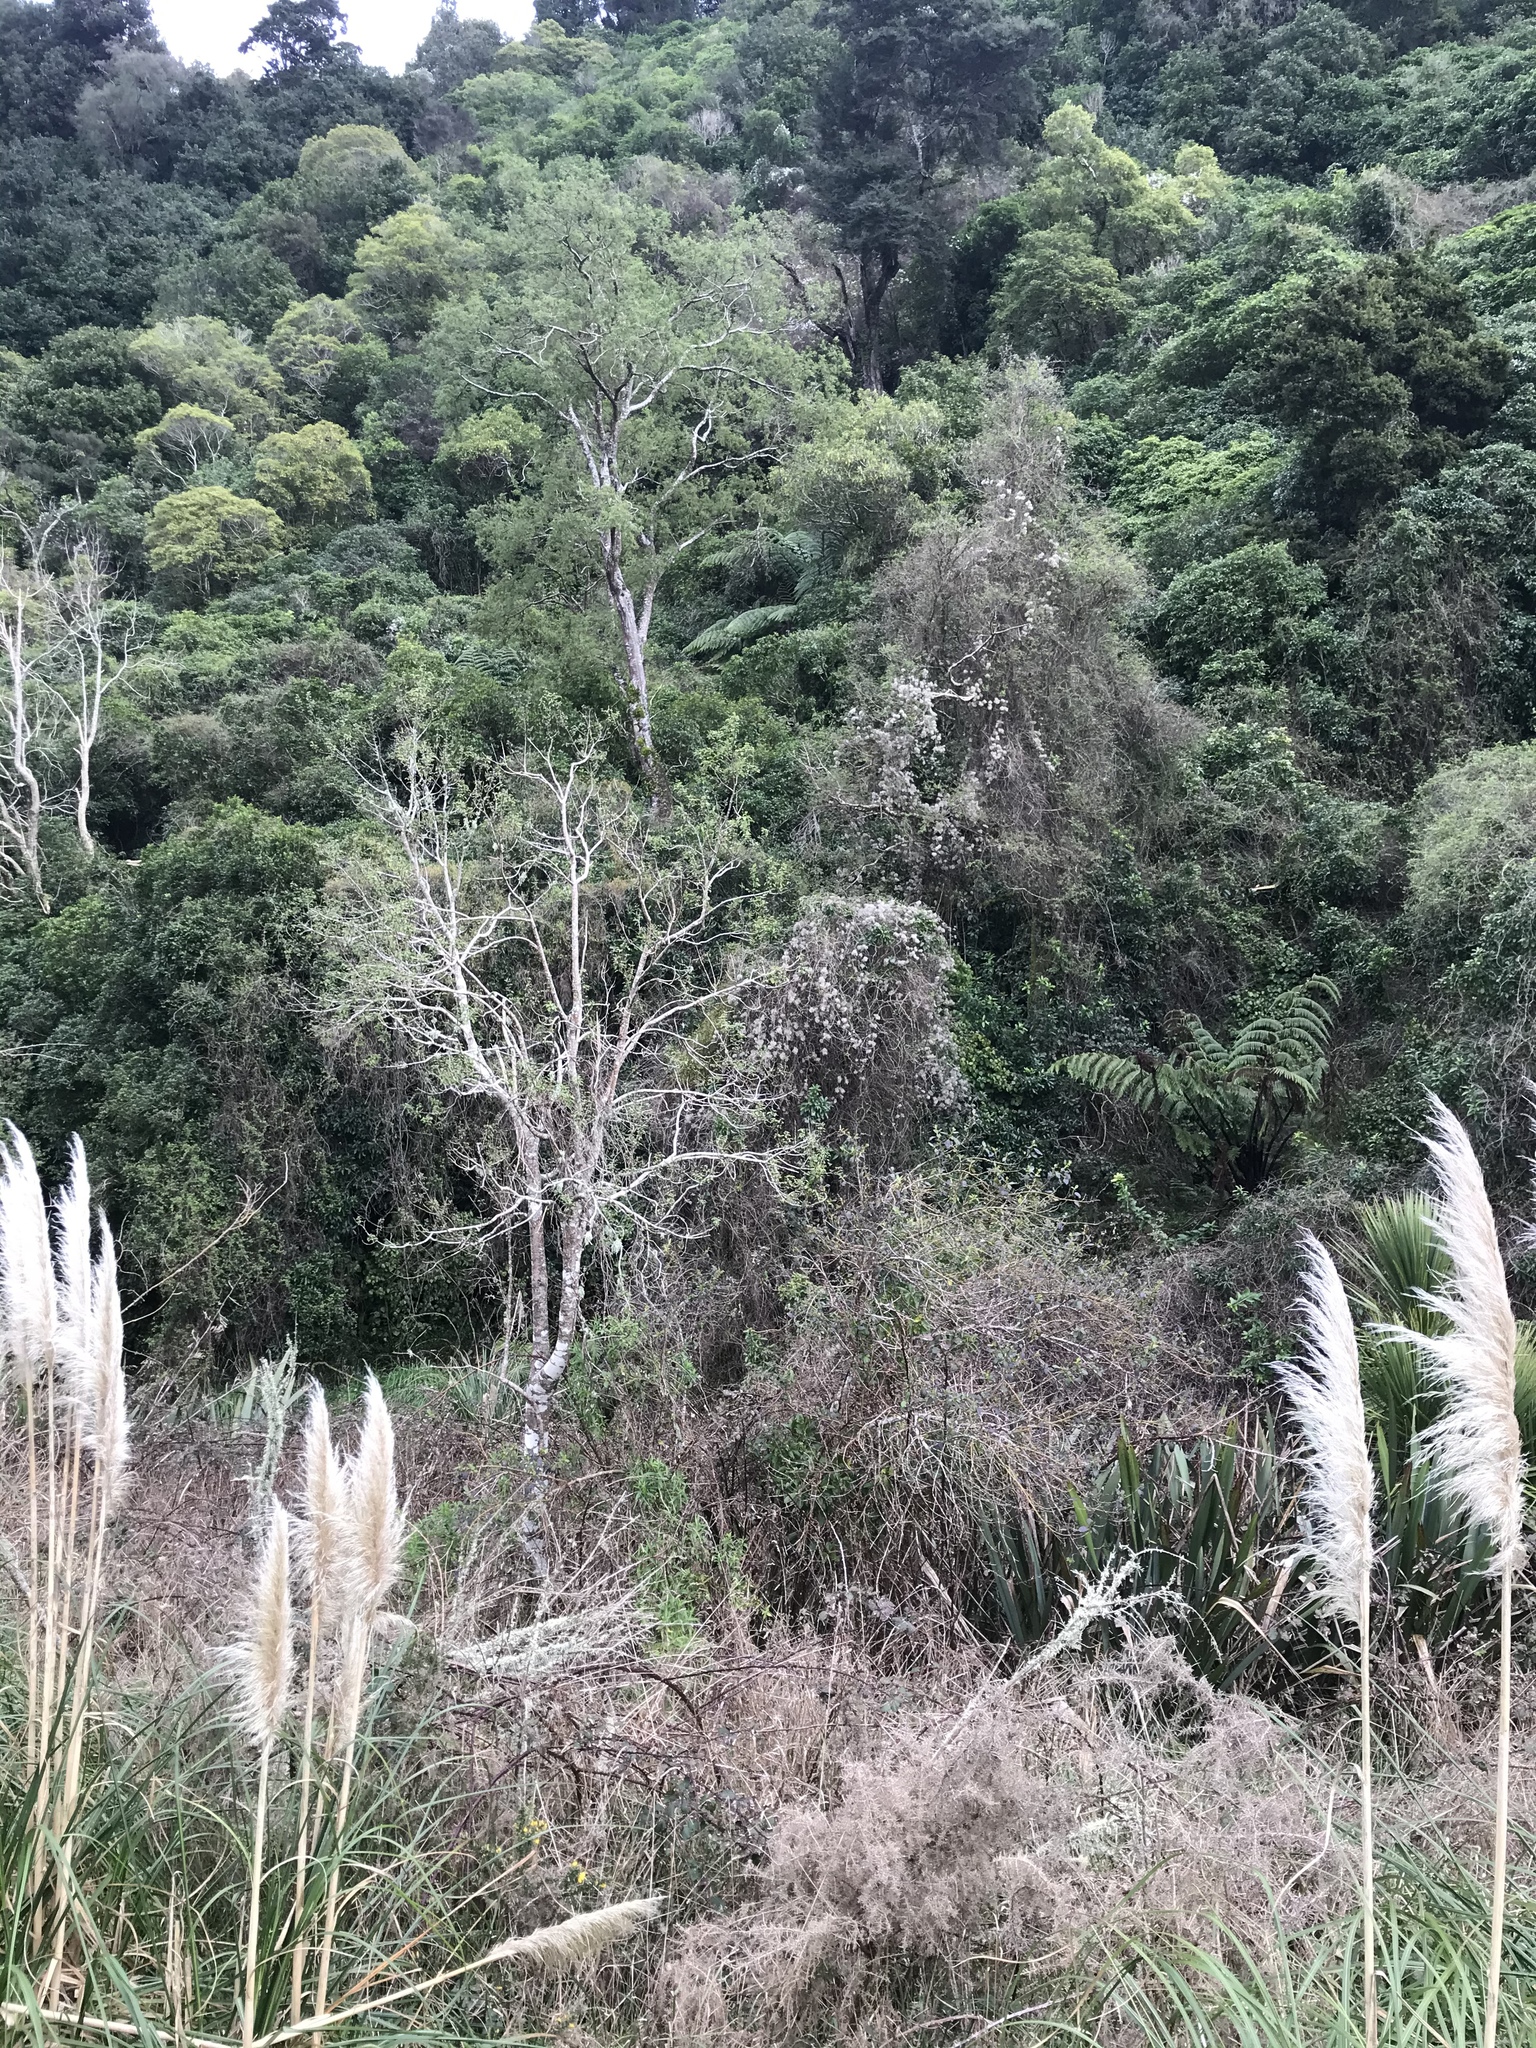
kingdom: Plantae
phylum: Tracheophyta
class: Magnoliopsida
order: Ranunculales
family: Ranunculaceae
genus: Clematis
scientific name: Clematis vitalba
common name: Evergreen clematis
